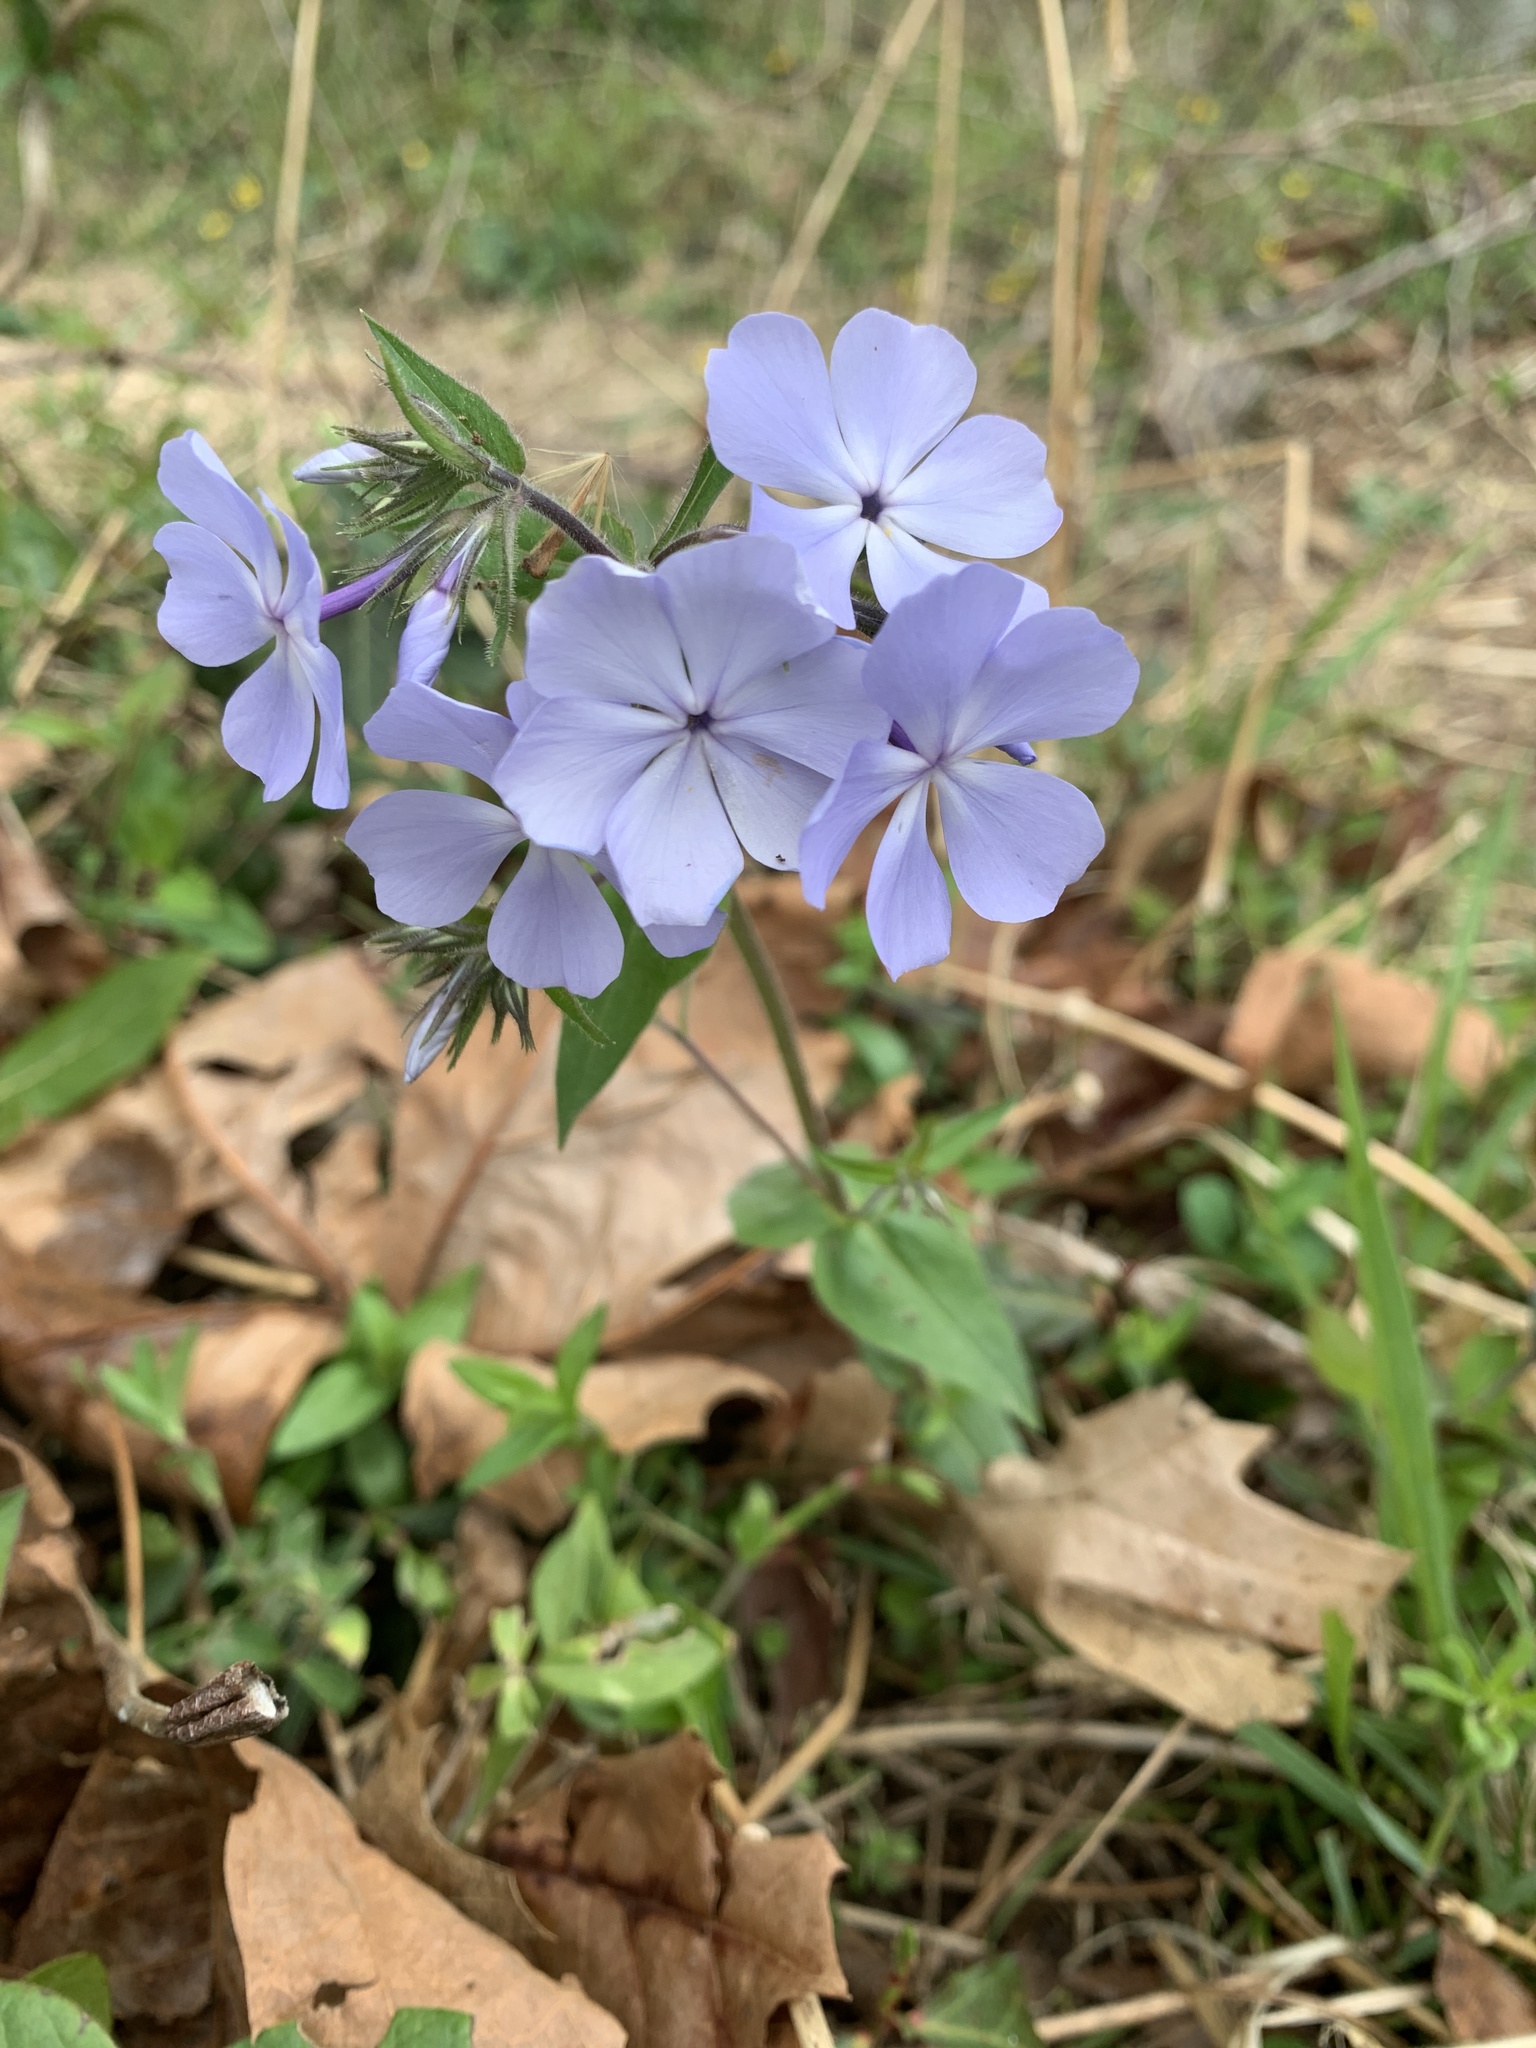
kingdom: Plantae
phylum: Tracheophyta
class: Magnoliopsida
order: Ericales
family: Polemoniaceae
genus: Phlox
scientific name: Phlox divaricata
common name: Blue phlox
